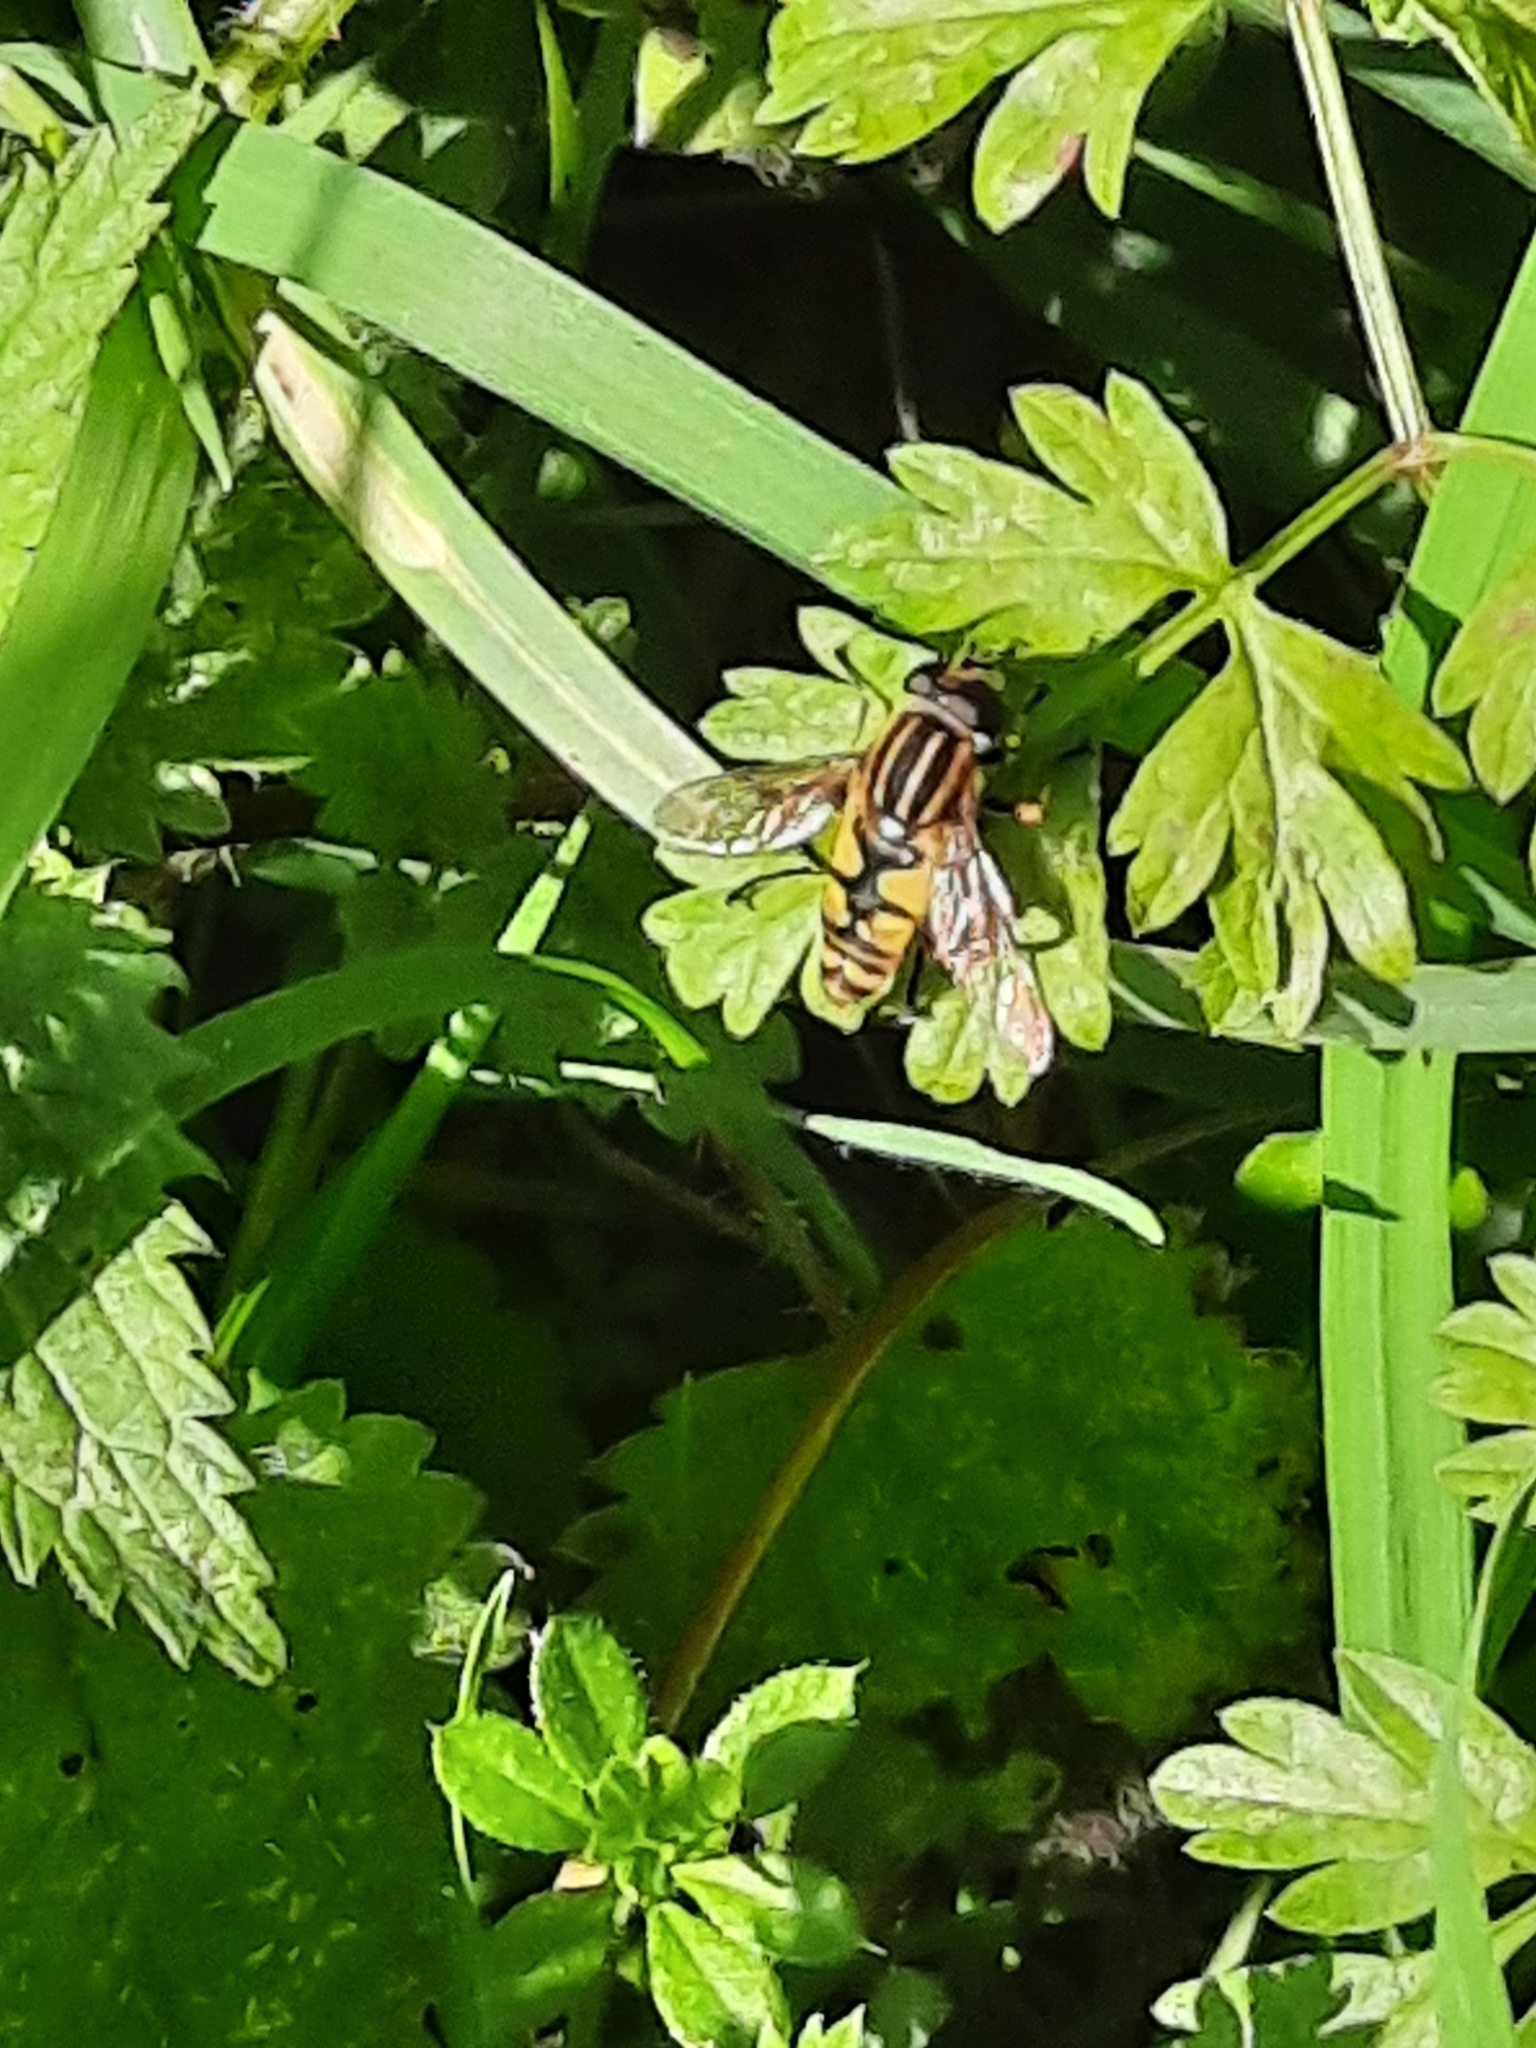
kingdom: Animalia
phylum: Arthropoda
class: Insecta
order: Diptera
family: Syrphidae
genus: Helophilus
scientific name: Helophilus pendulus
